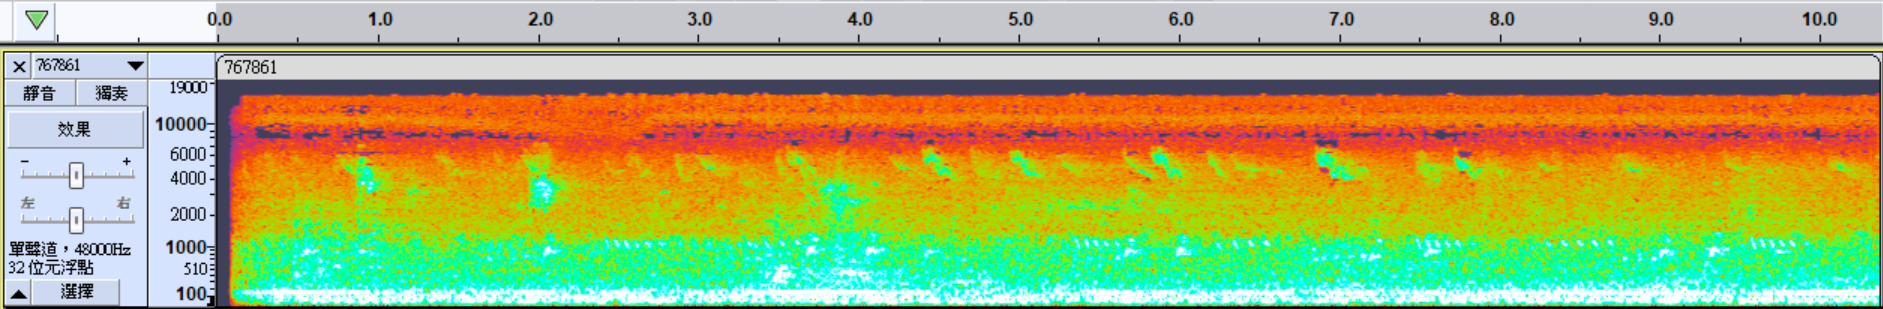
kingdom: Animalia
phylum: Chordata
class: Aves
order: Gruiformes
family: Rallidae
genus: Amaurornis
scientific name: Amaurornis phoenicurus
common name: White-breasted waterhen
